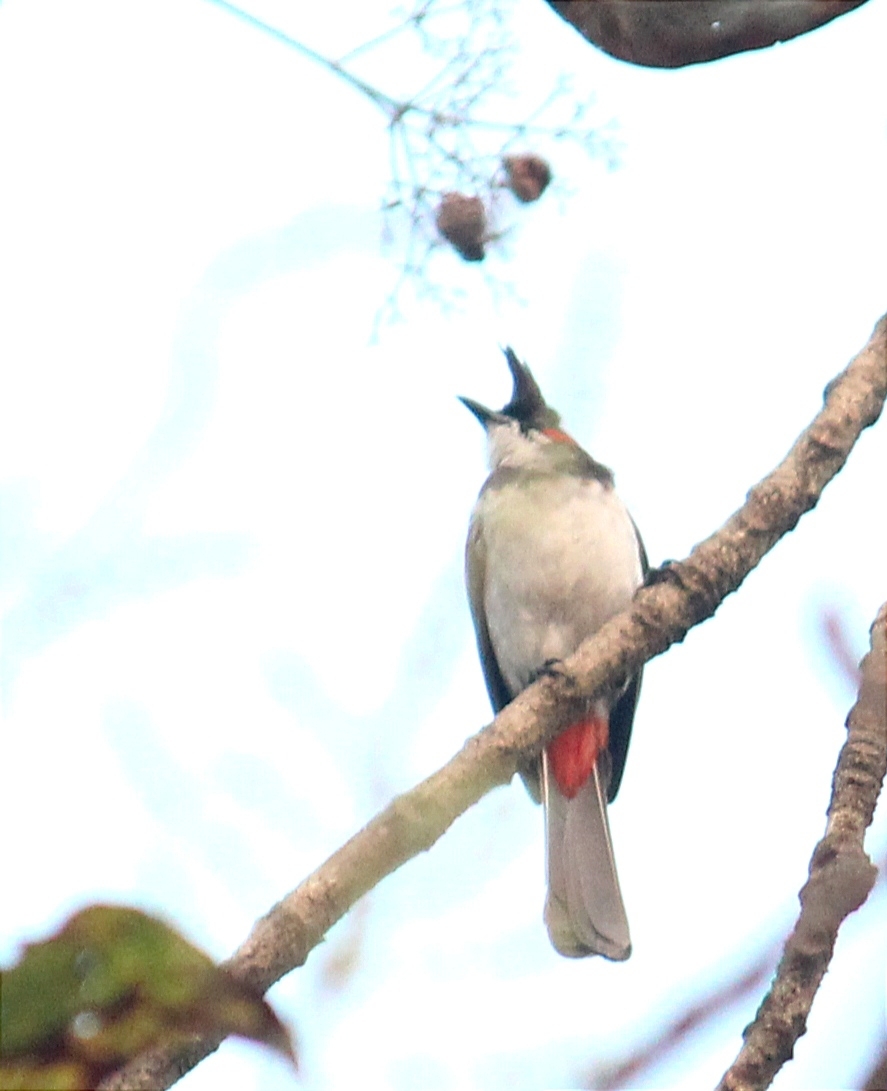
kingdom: Animalia
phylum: Chordata
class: Aves
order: Passeriformes
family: Pycnonotidae
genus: Pycnonotus
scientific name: Pycnonotus jocosus
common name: Red-whiskered bulbul
